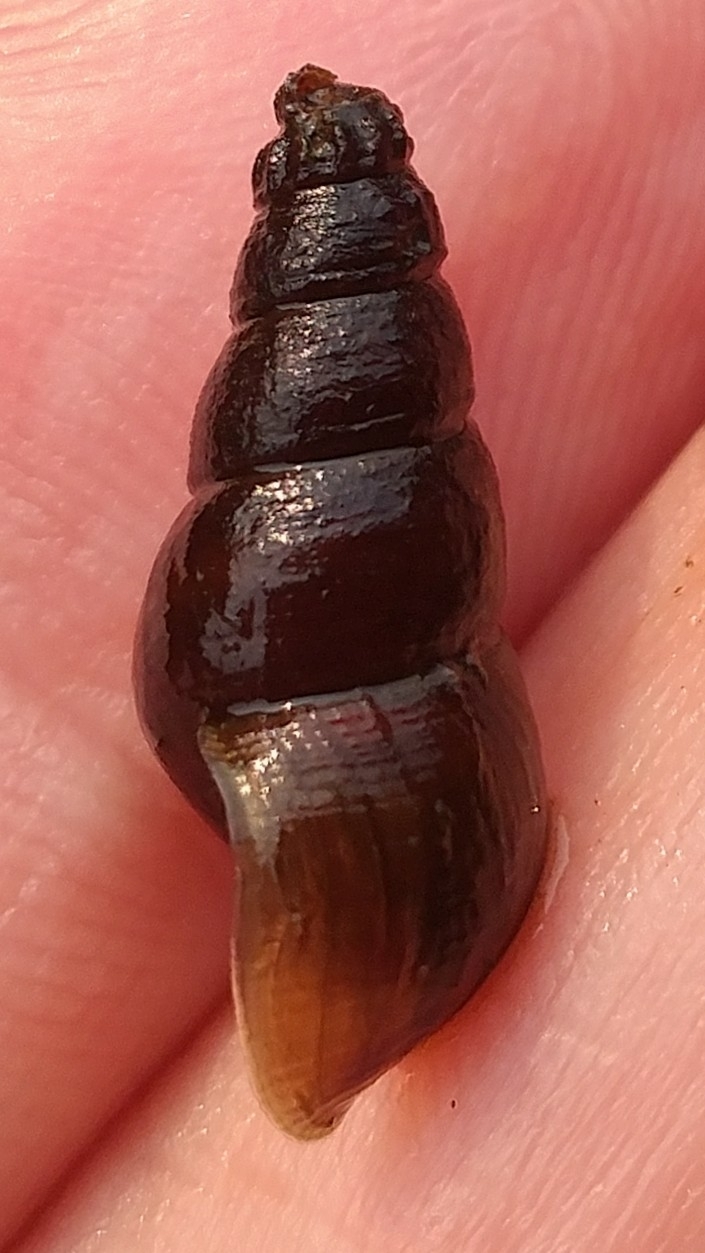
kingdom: Animalia
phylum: Mollusca
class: Gastropoda
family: Semisulcospiridae
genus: Juga
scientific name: Juga plicifera
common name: Pleated juga
